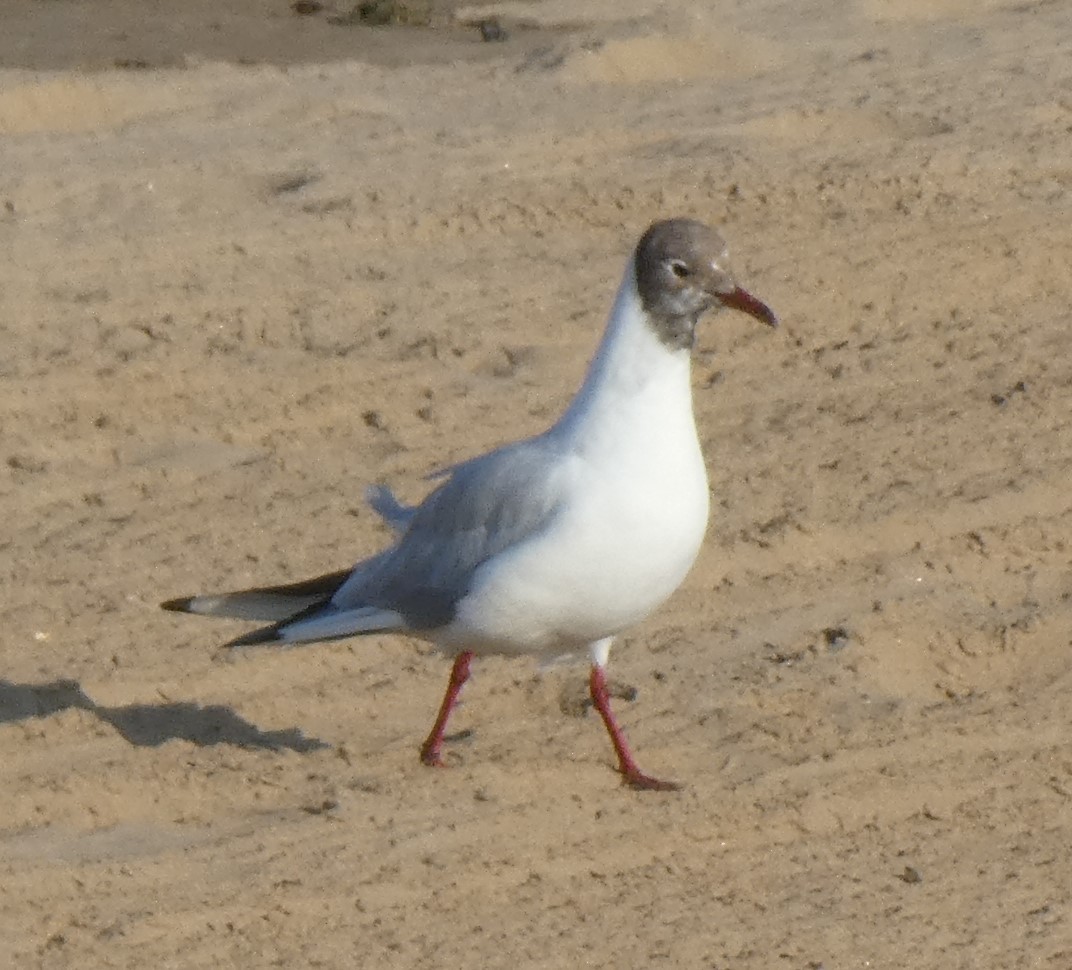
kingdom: Animalia
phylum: Chordata
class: Aves
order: Charadriiformes
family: Laridae
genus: Chroicocephalus
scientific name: Chroicocephalus ridibundus
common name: Black-headed gull
